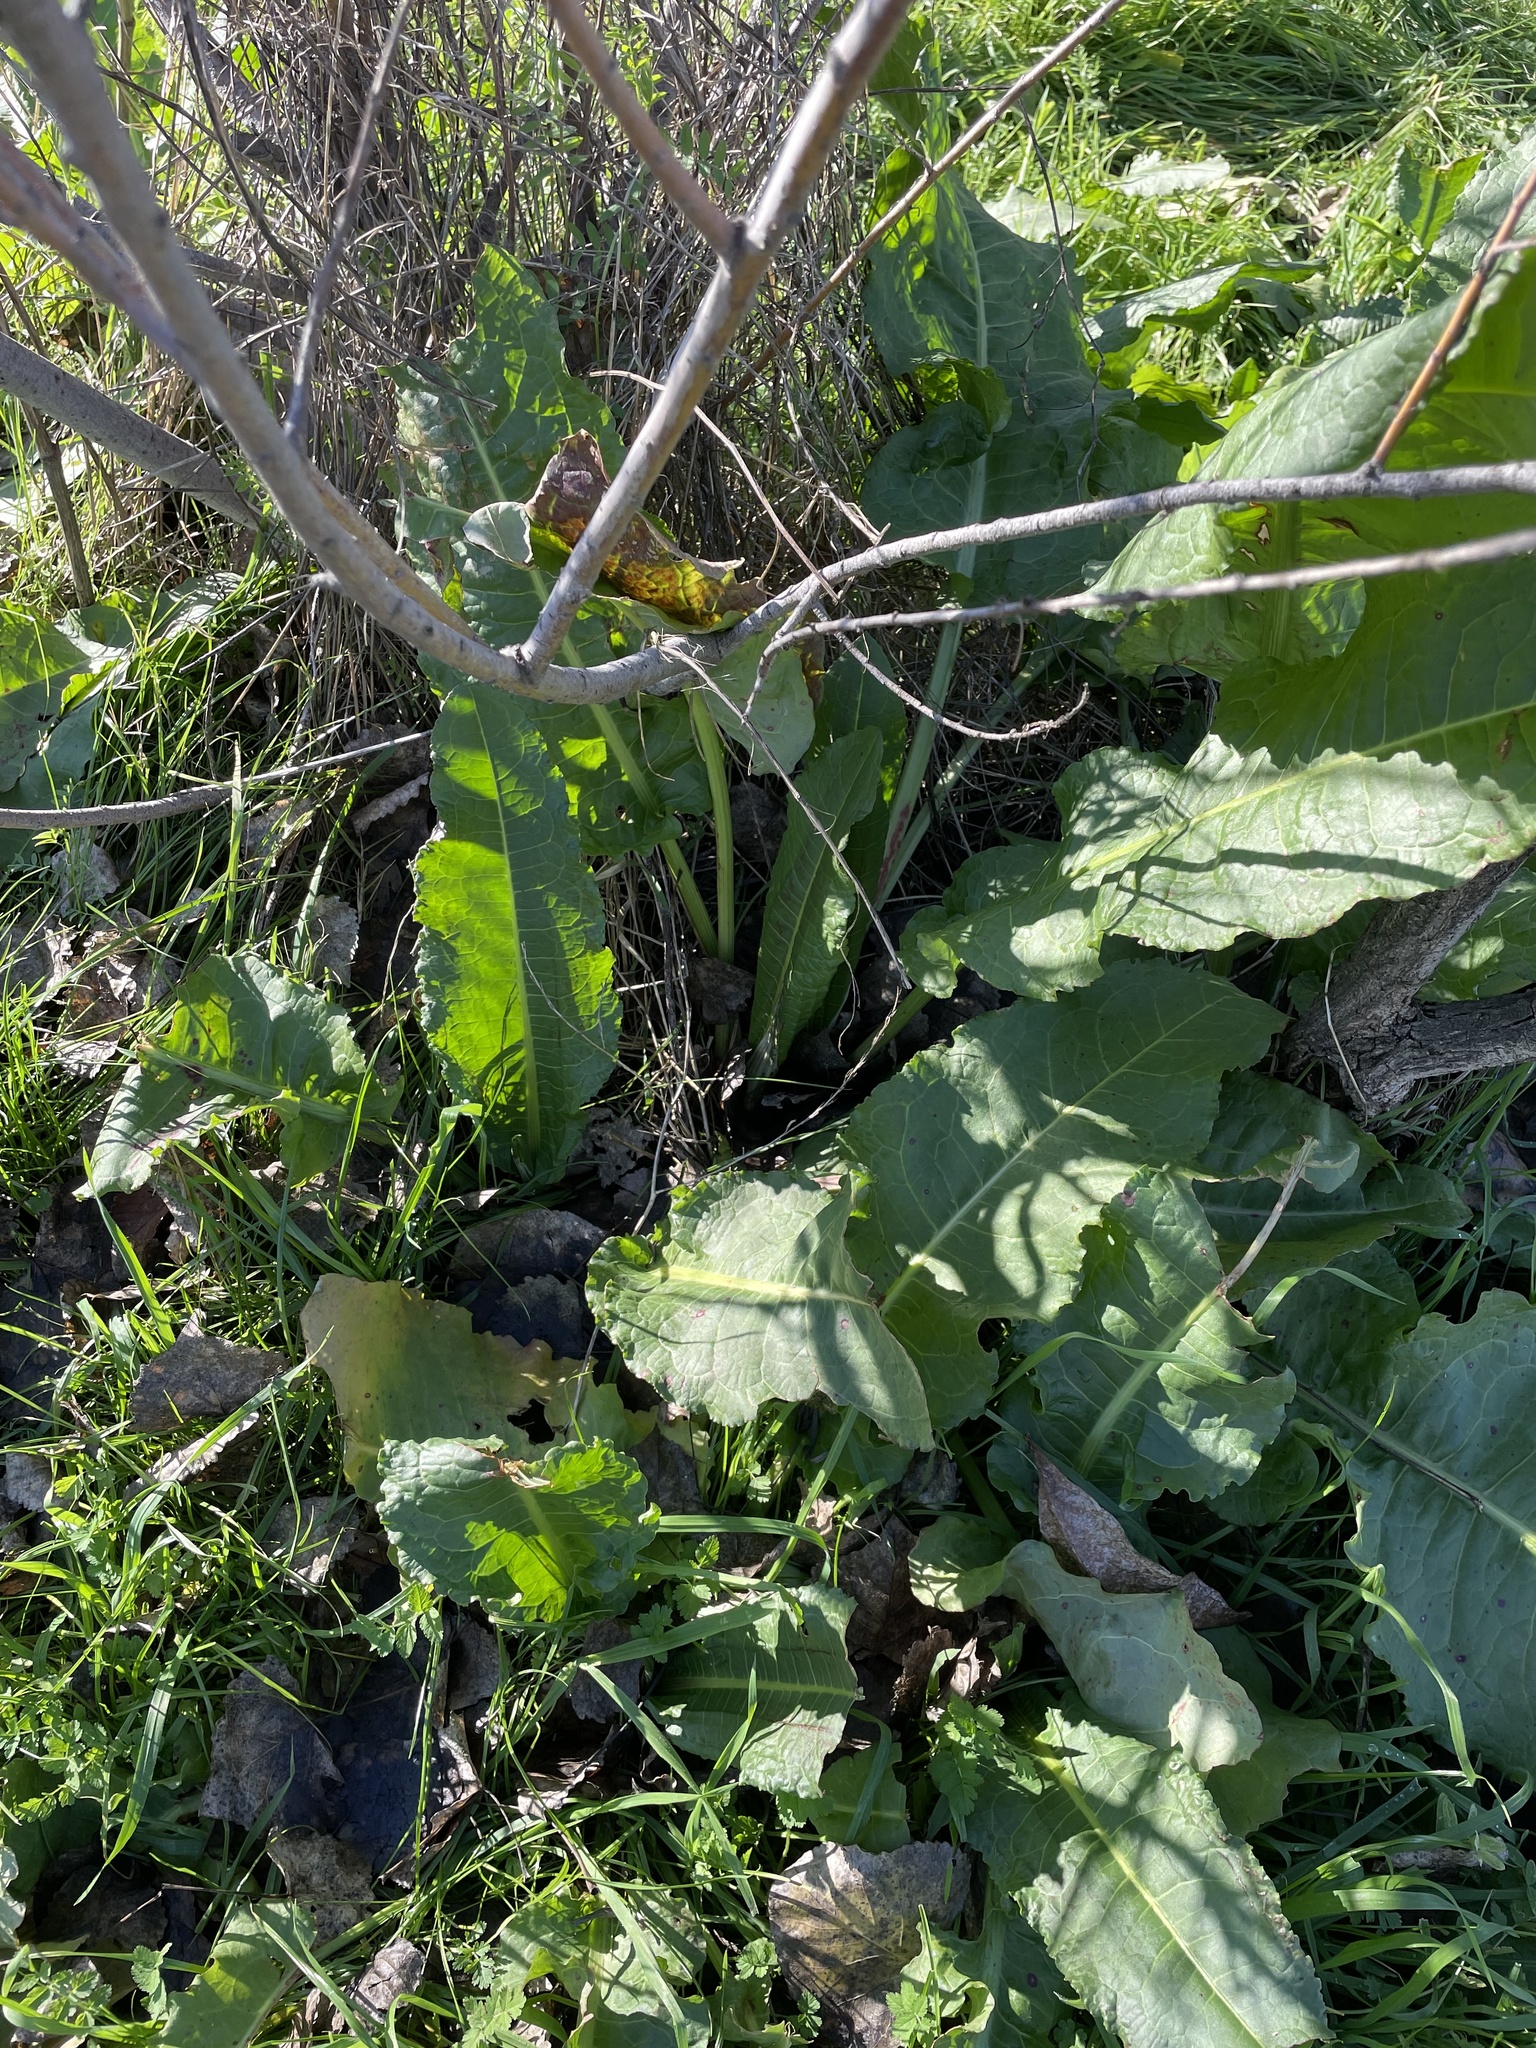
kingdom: Plantae
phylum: Tracheophyta
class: Magnoliopsida
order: Caryophyllales
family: Polygonaceae
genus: Rumex
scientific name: Rumex crispus
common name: Curled dock
